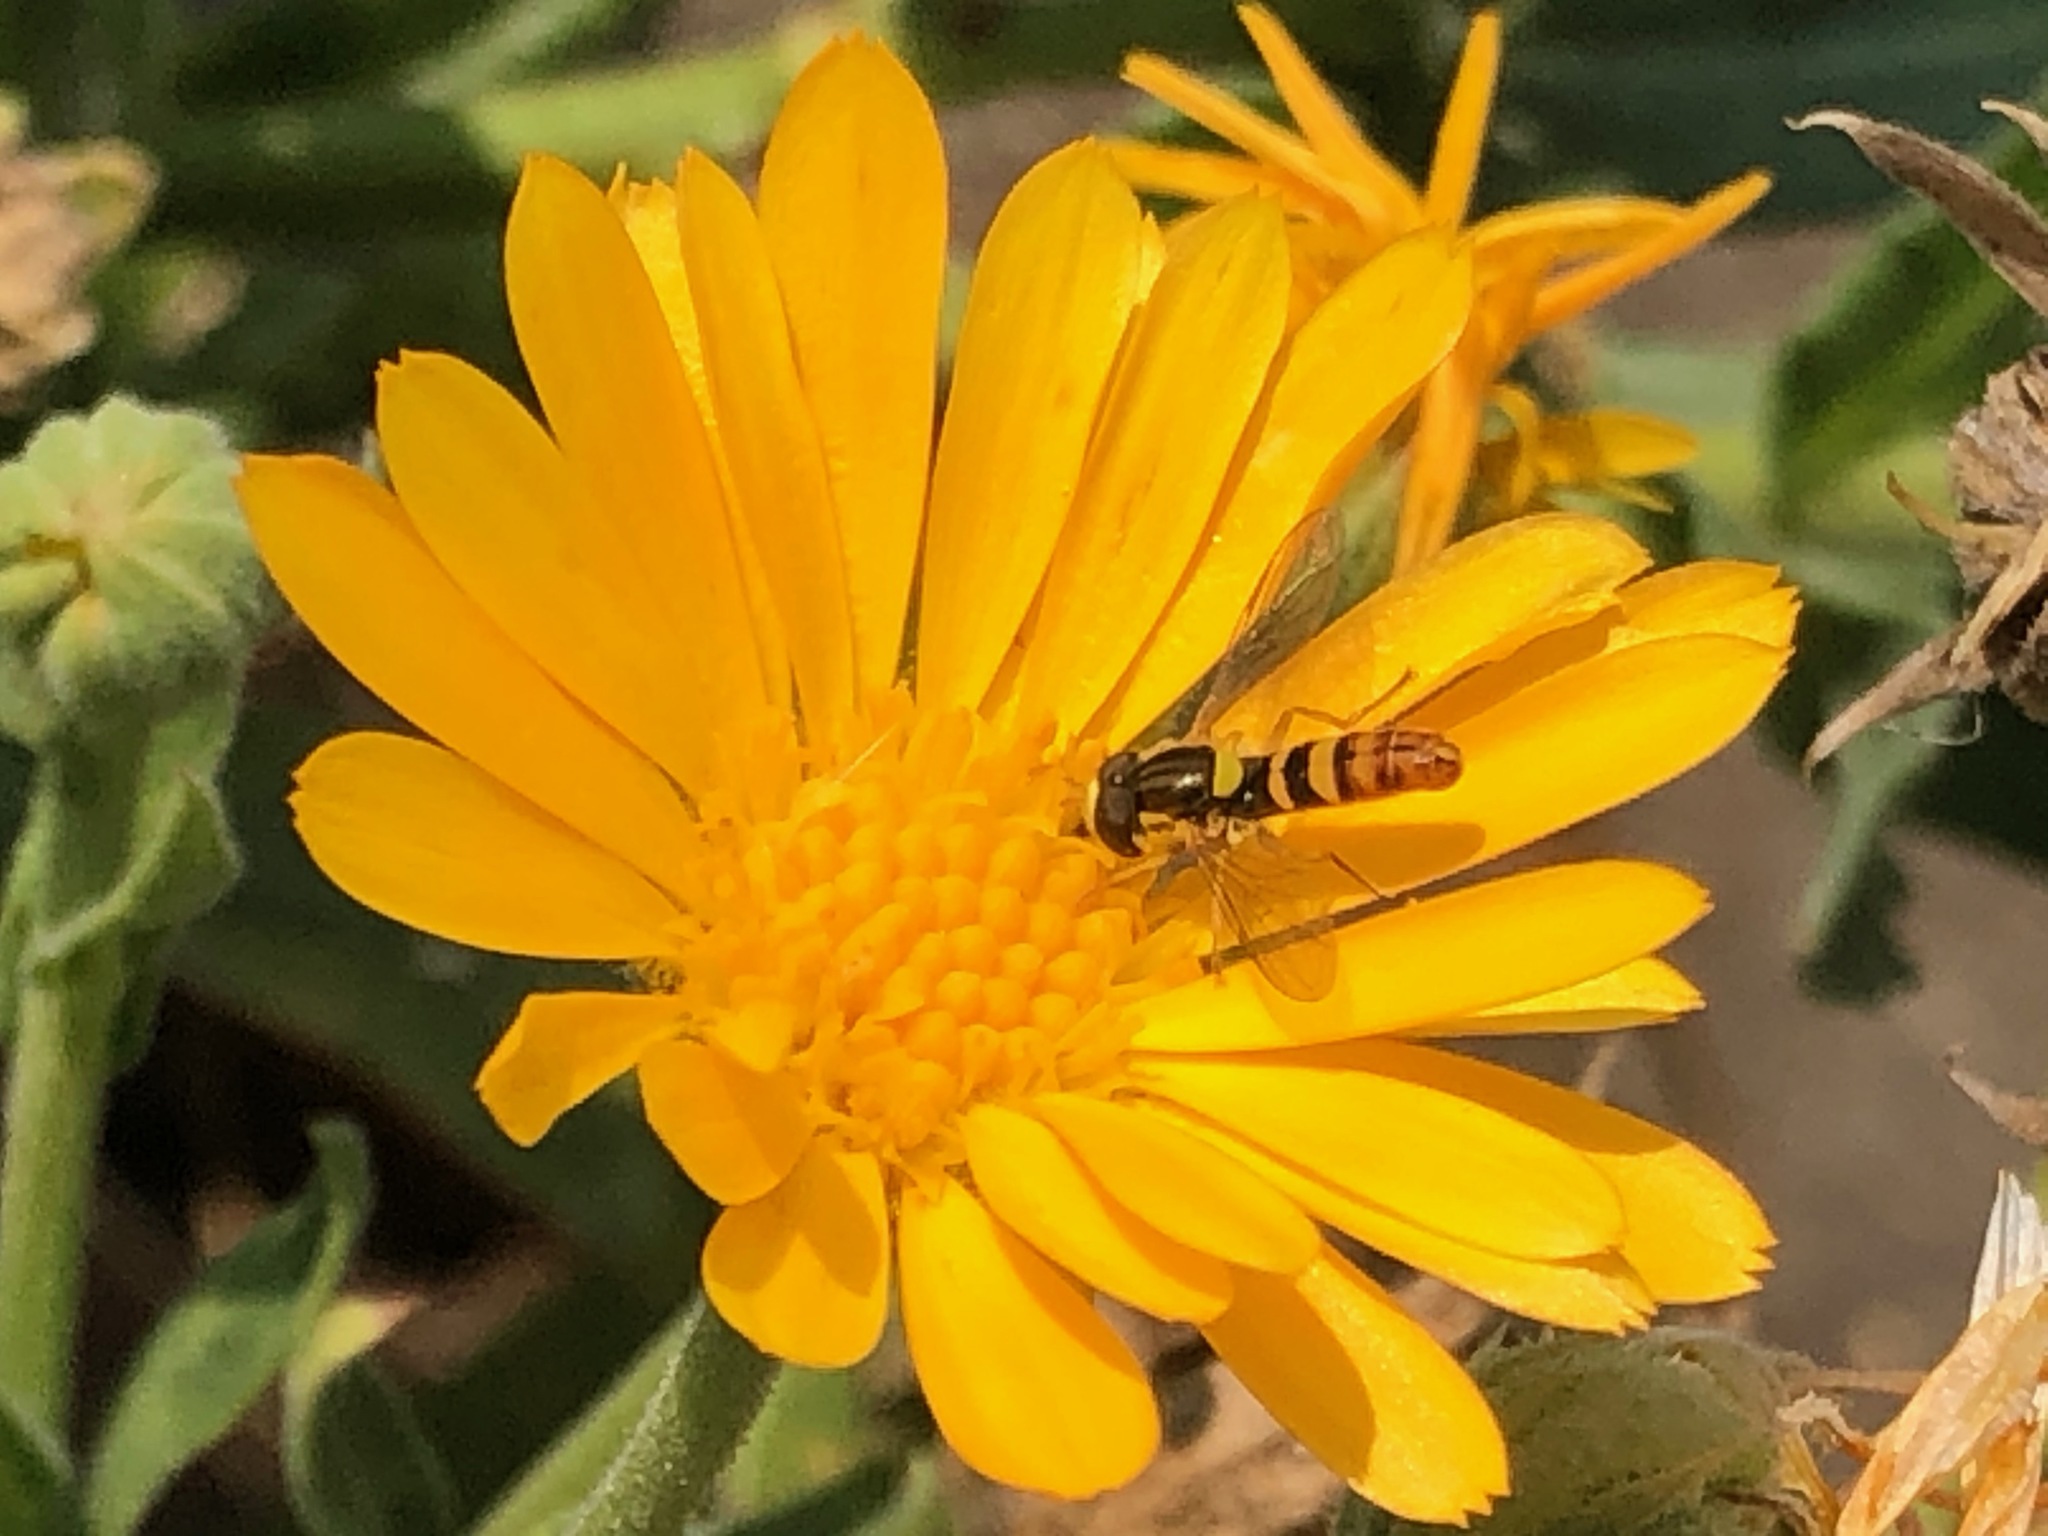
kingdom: Animalia
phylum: Arthropoda
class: Insecta
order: Diptera
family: Syrphidae
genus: Sphaerophoria
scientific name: Sphaerophoria sulphuripes
